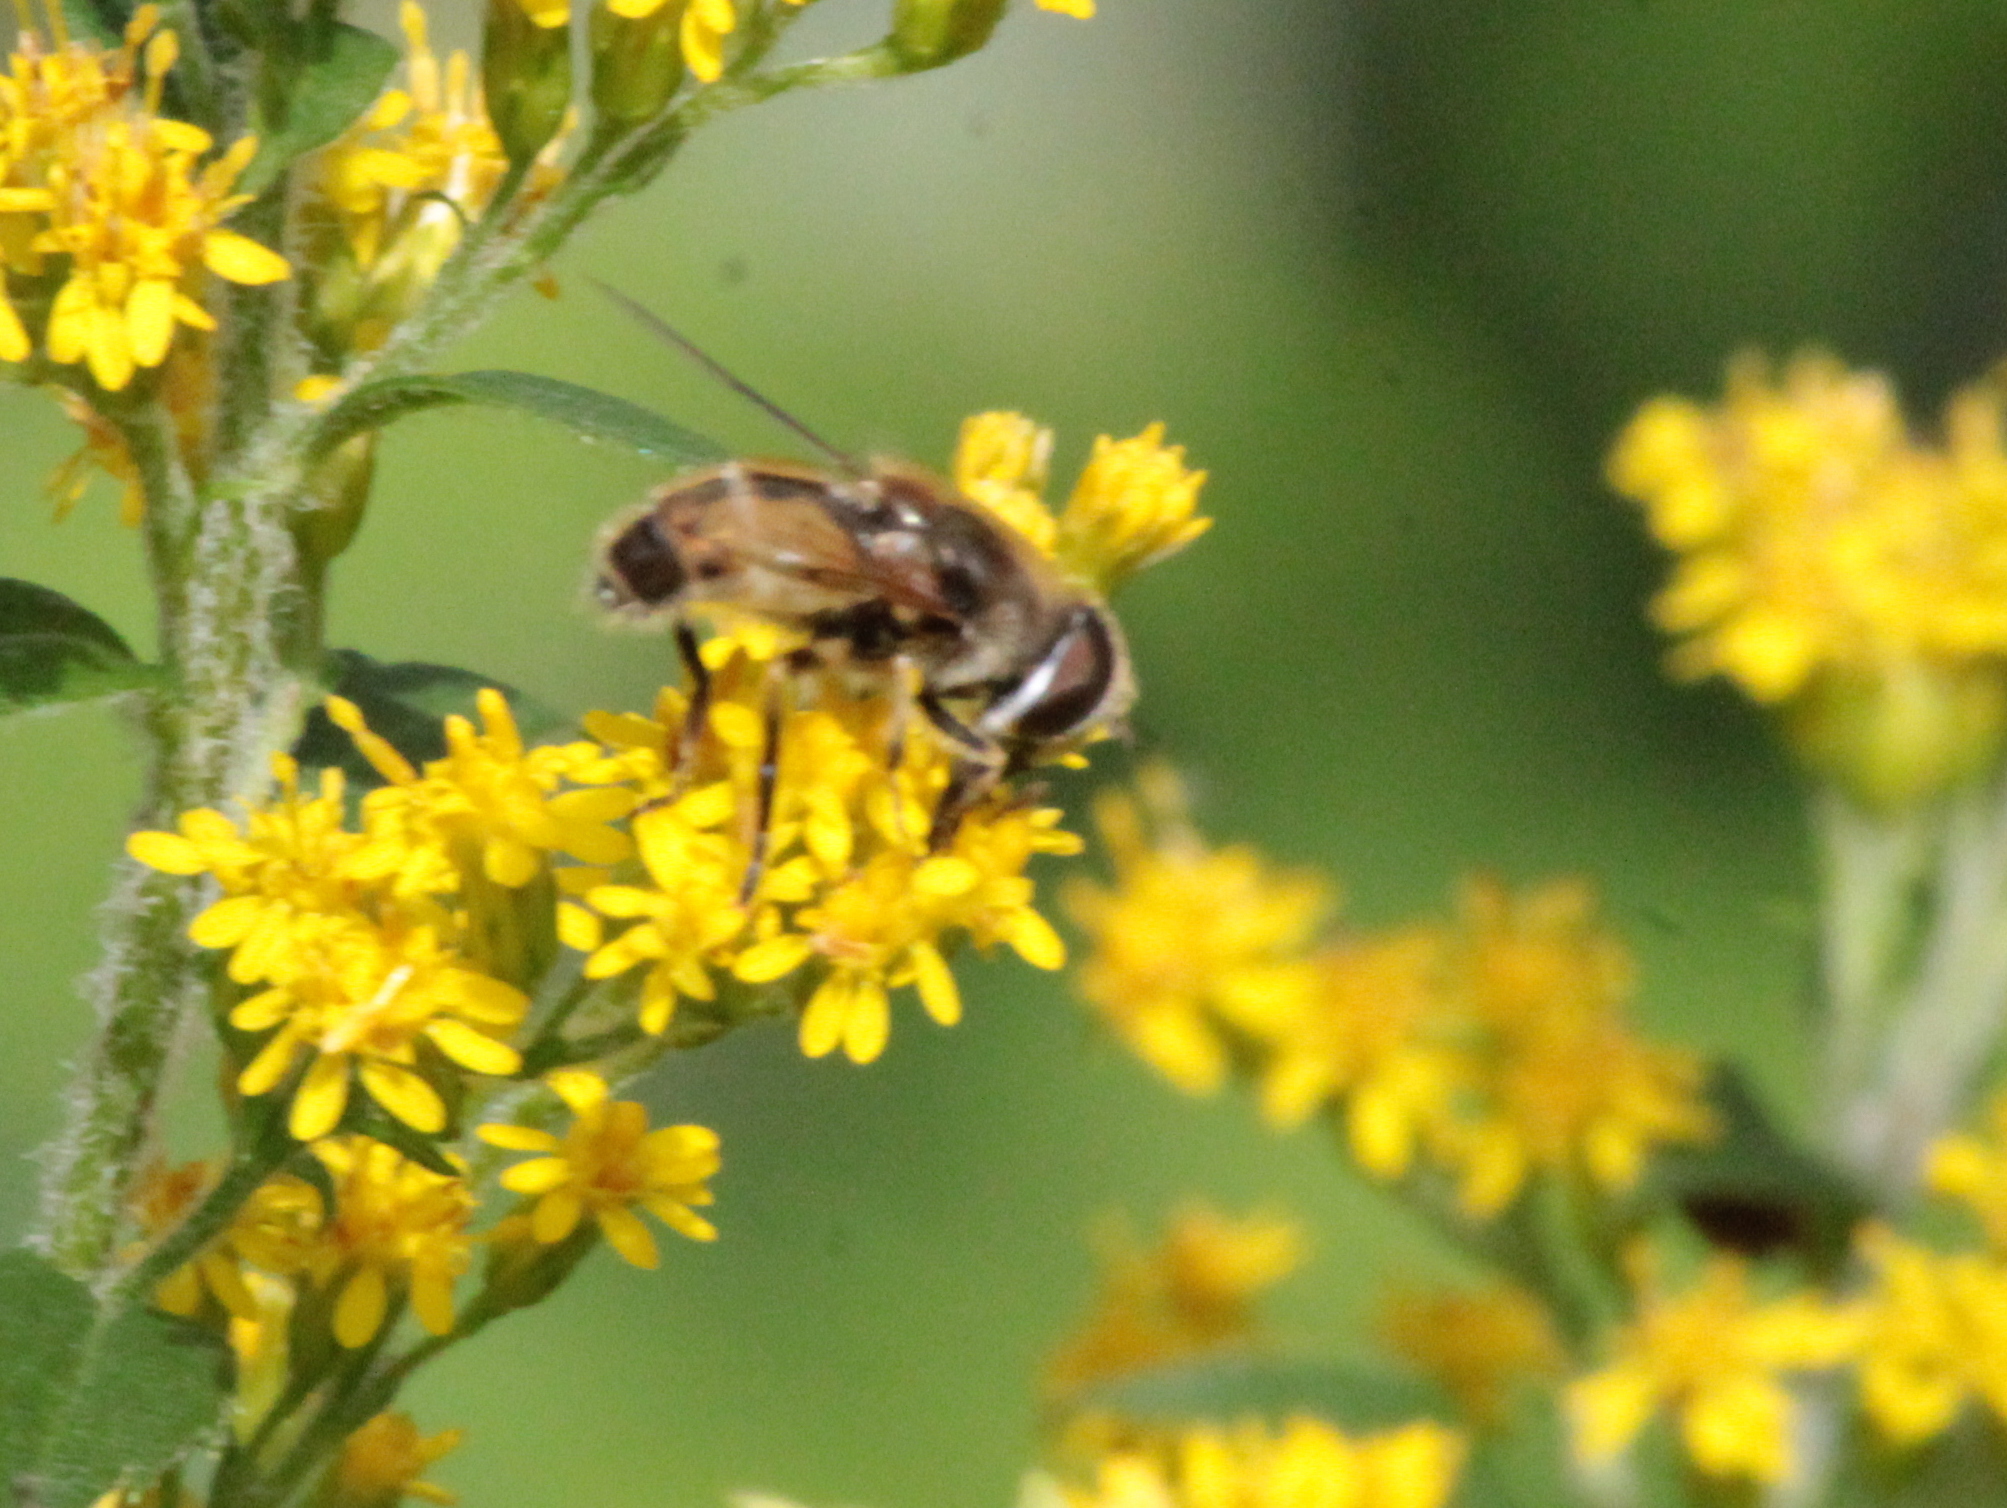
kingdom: Animalia
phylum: Arthropoda
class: Insecta
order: Diptera
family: Syrphidae
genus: Eristalis
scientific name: Eristalis arbustorum
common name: Hover fly
